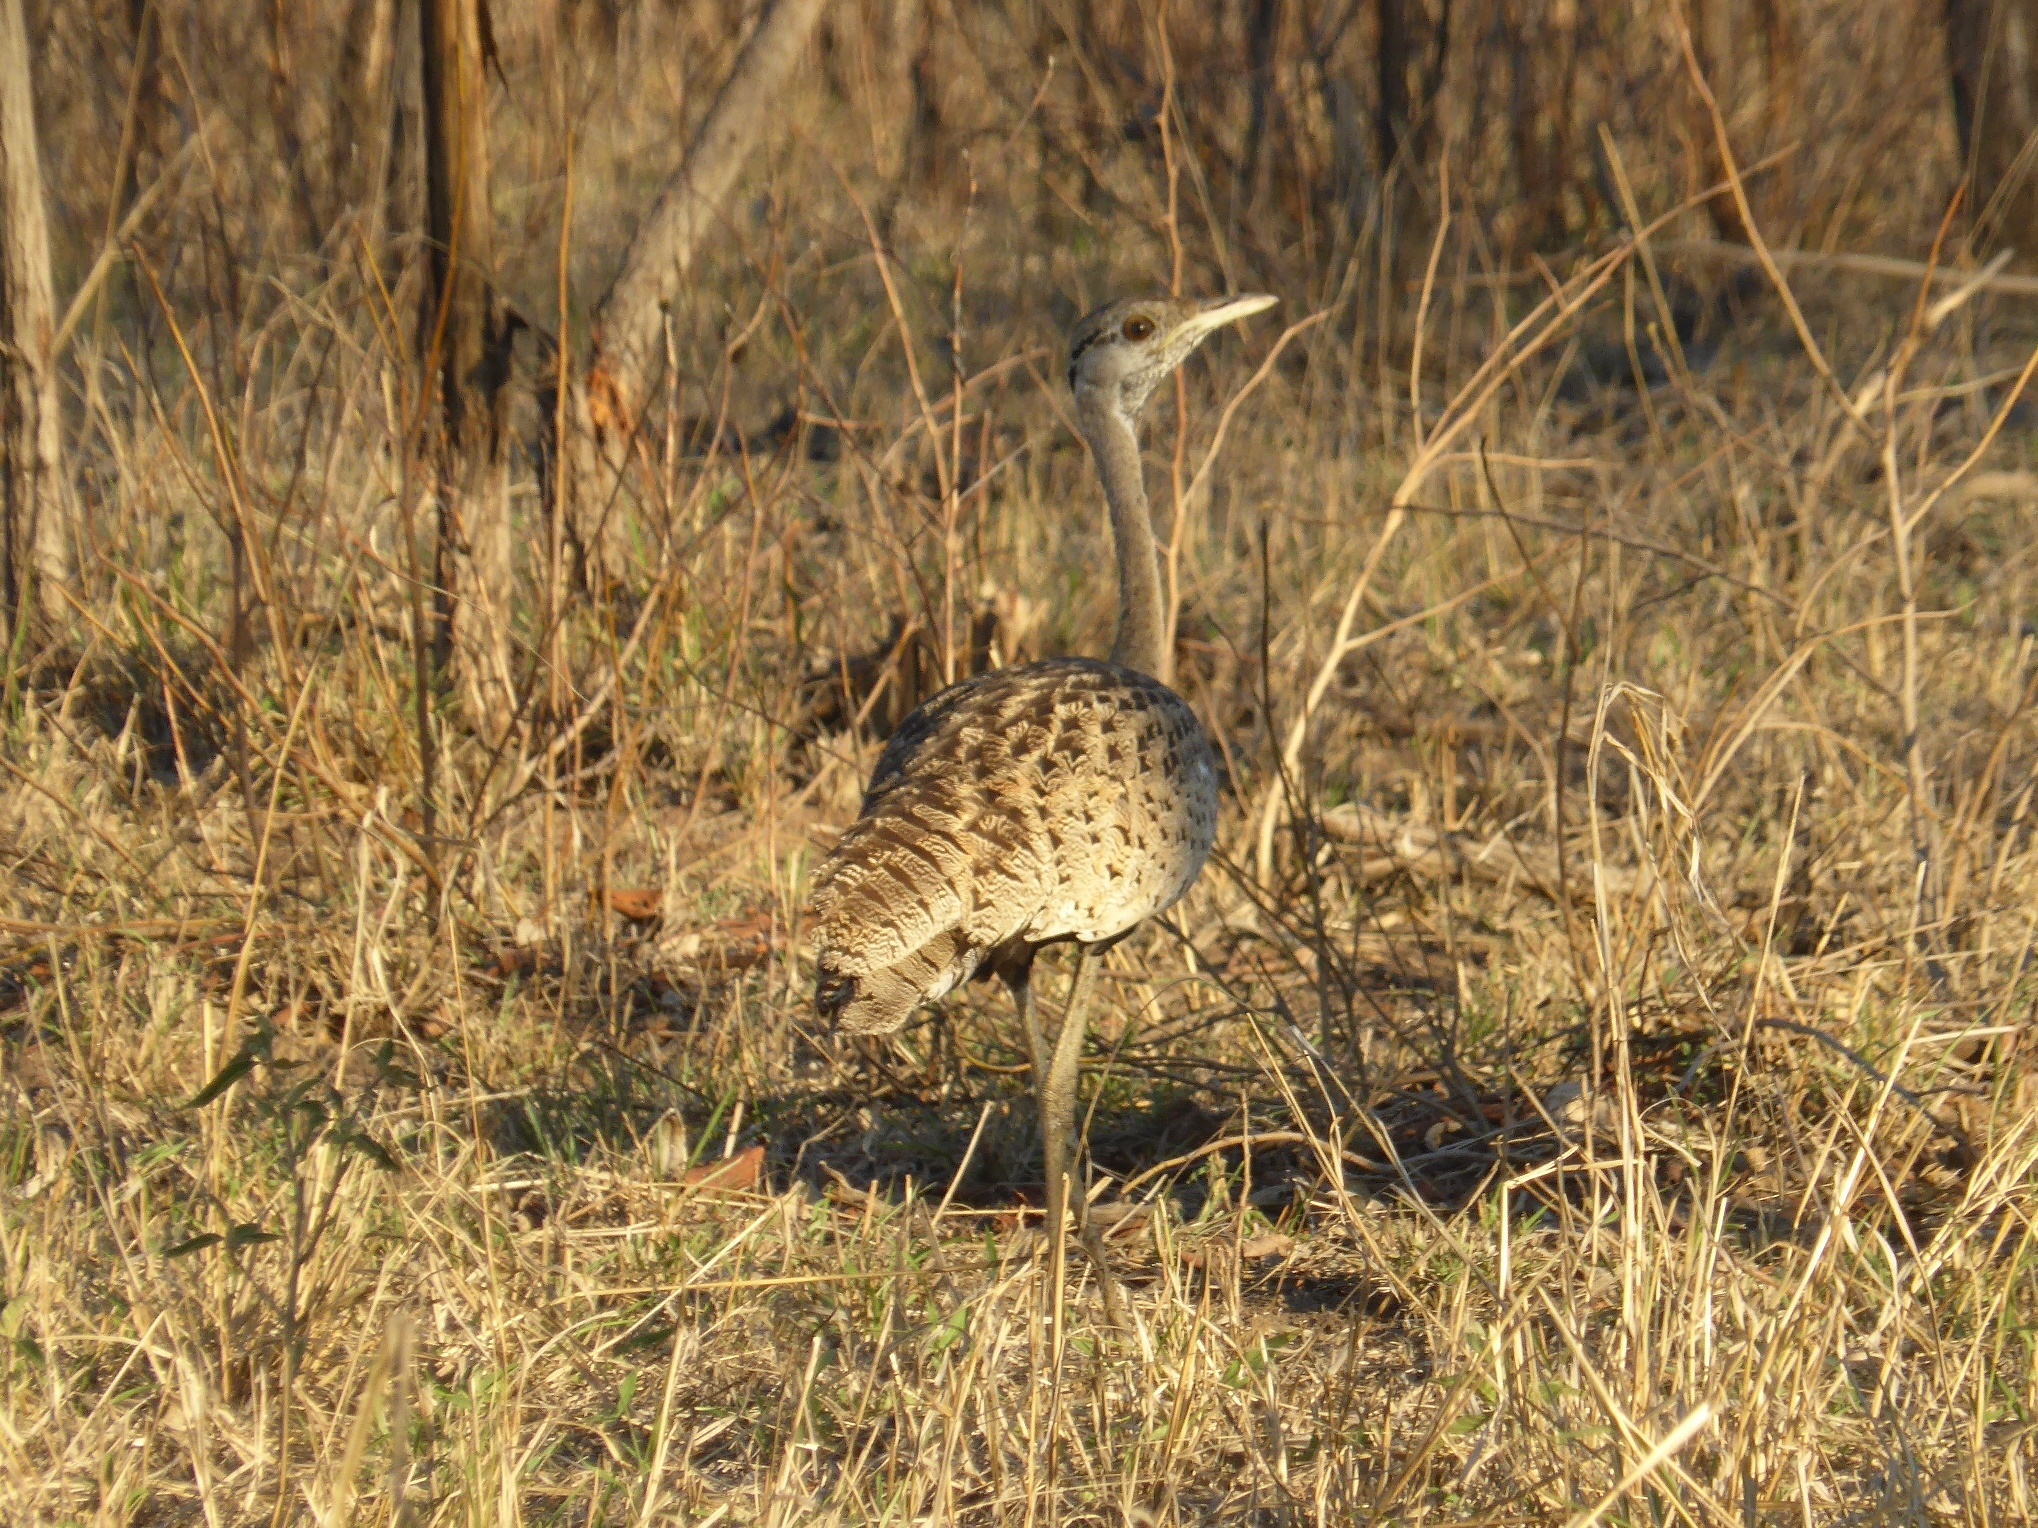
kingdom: Animalia
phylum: Chordata
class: Aves
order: Otidiformes
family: Otididae
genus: Lissotis
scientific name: Lissotis melanogaster
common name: Black-bellied bustard
